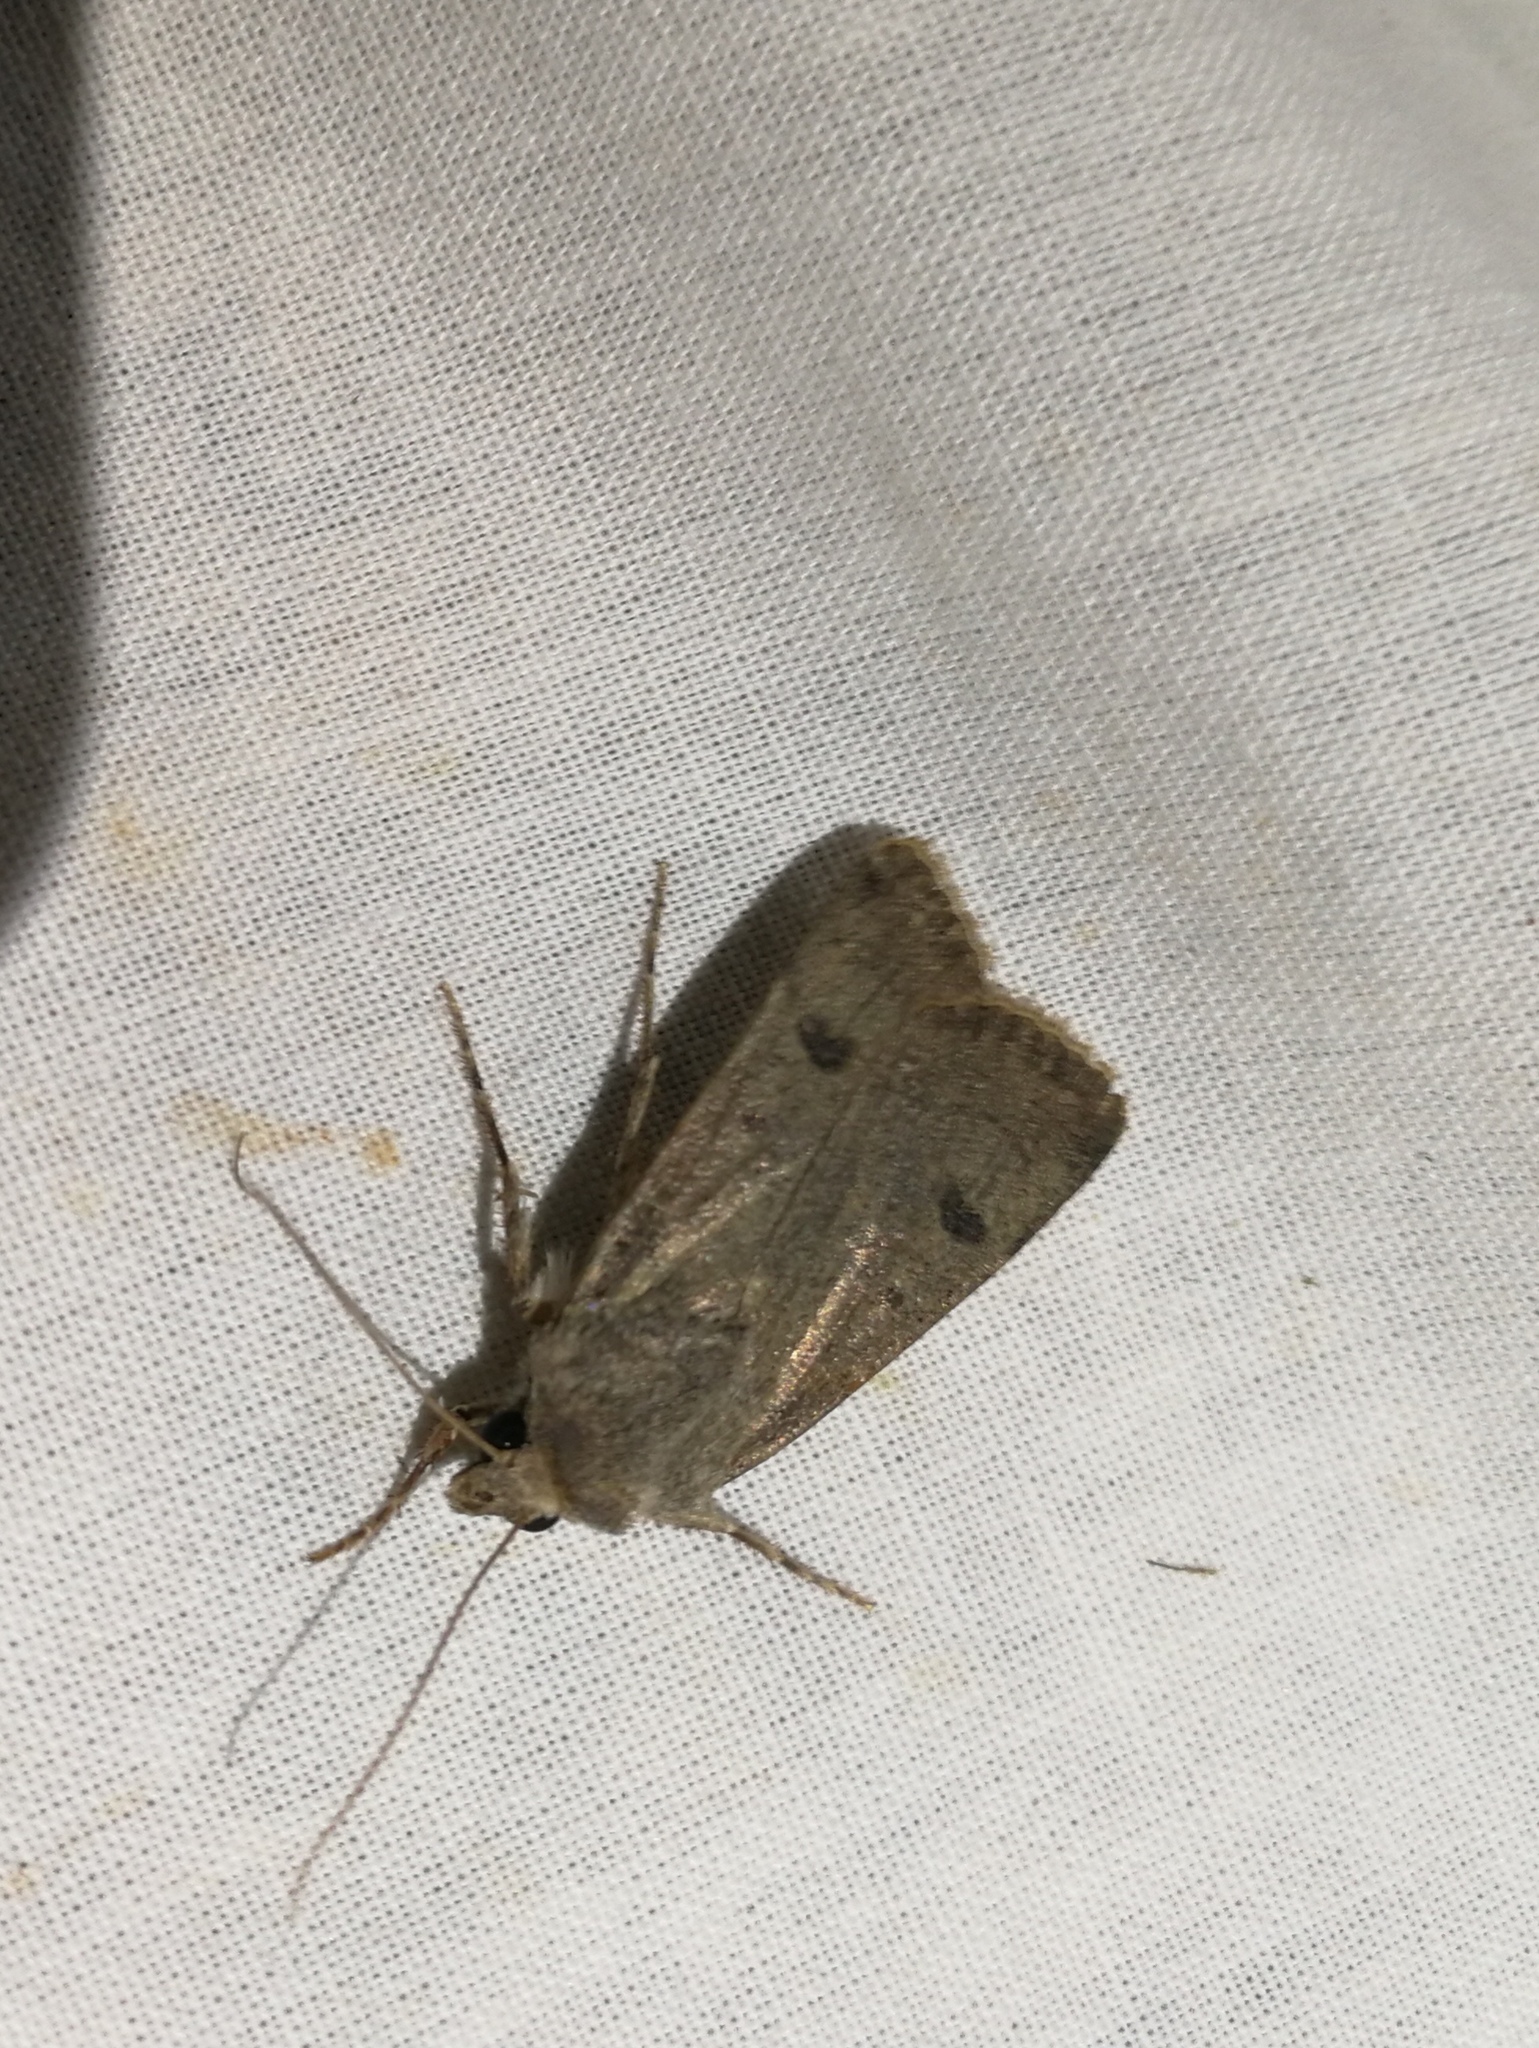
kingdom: Animalia
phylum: Arthropoda
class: Insecta
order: Lepidoptera
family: Noctuidae
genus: Agrotis
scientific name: Agrotis trux
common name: Crescent dart
